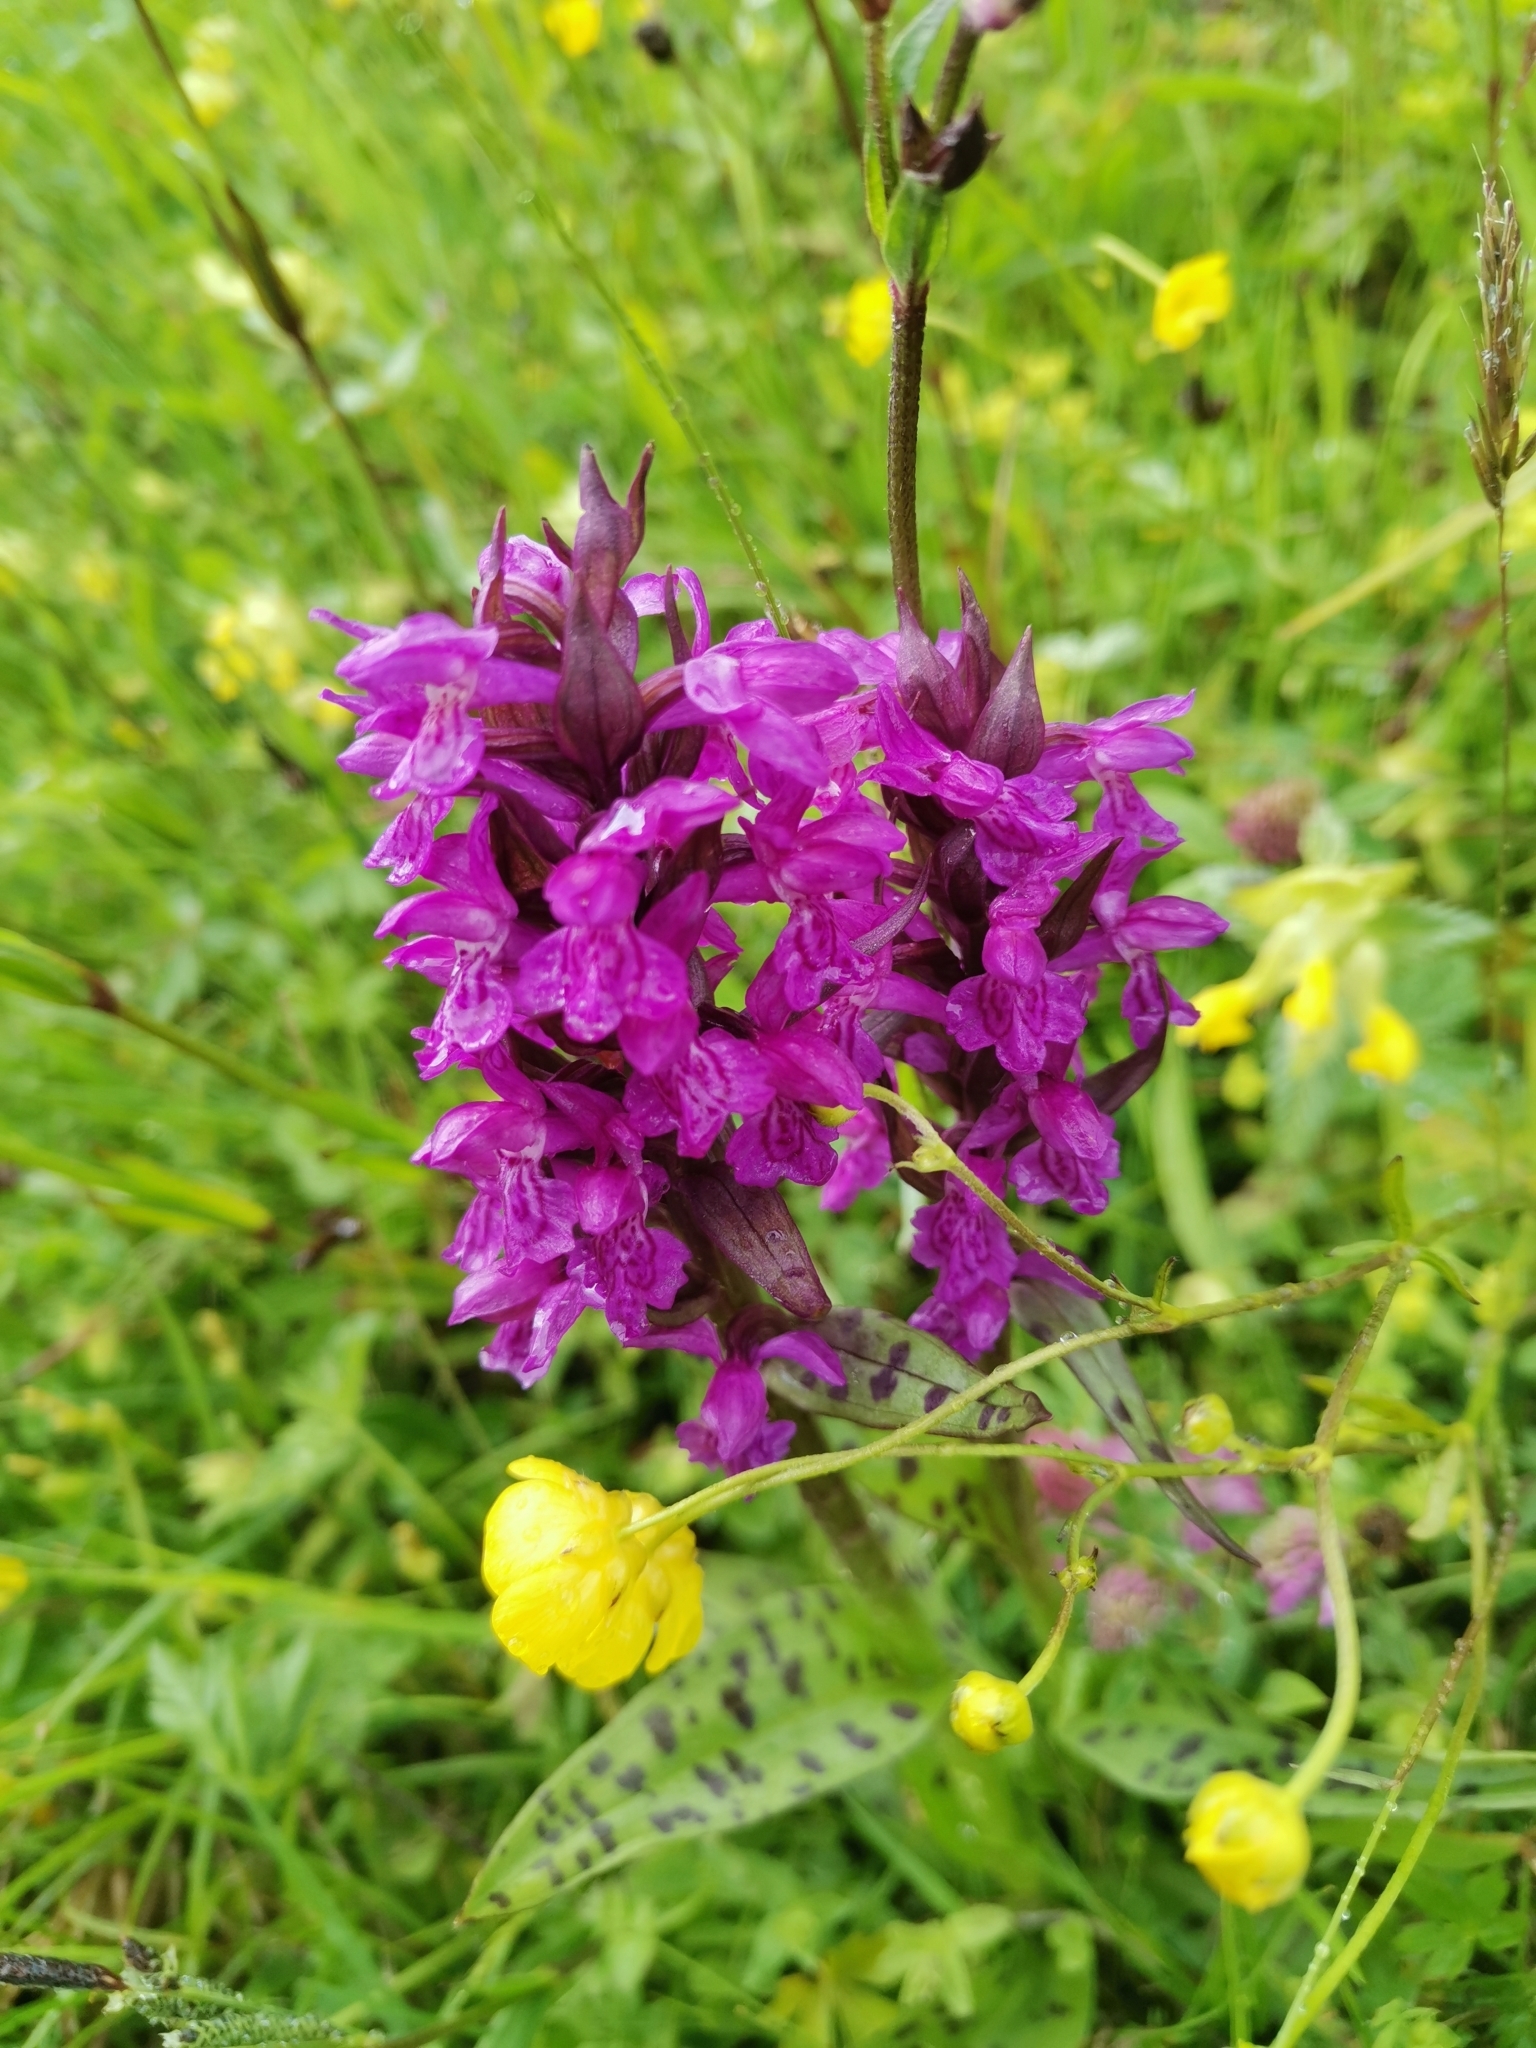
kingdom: Plantae
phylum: Tracheophyta
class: Liliopsida
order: Asparagales
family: Orchidaceae
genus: Dactylorhiza
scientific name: Dactylorhiza majalis
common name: Marsh orchid
